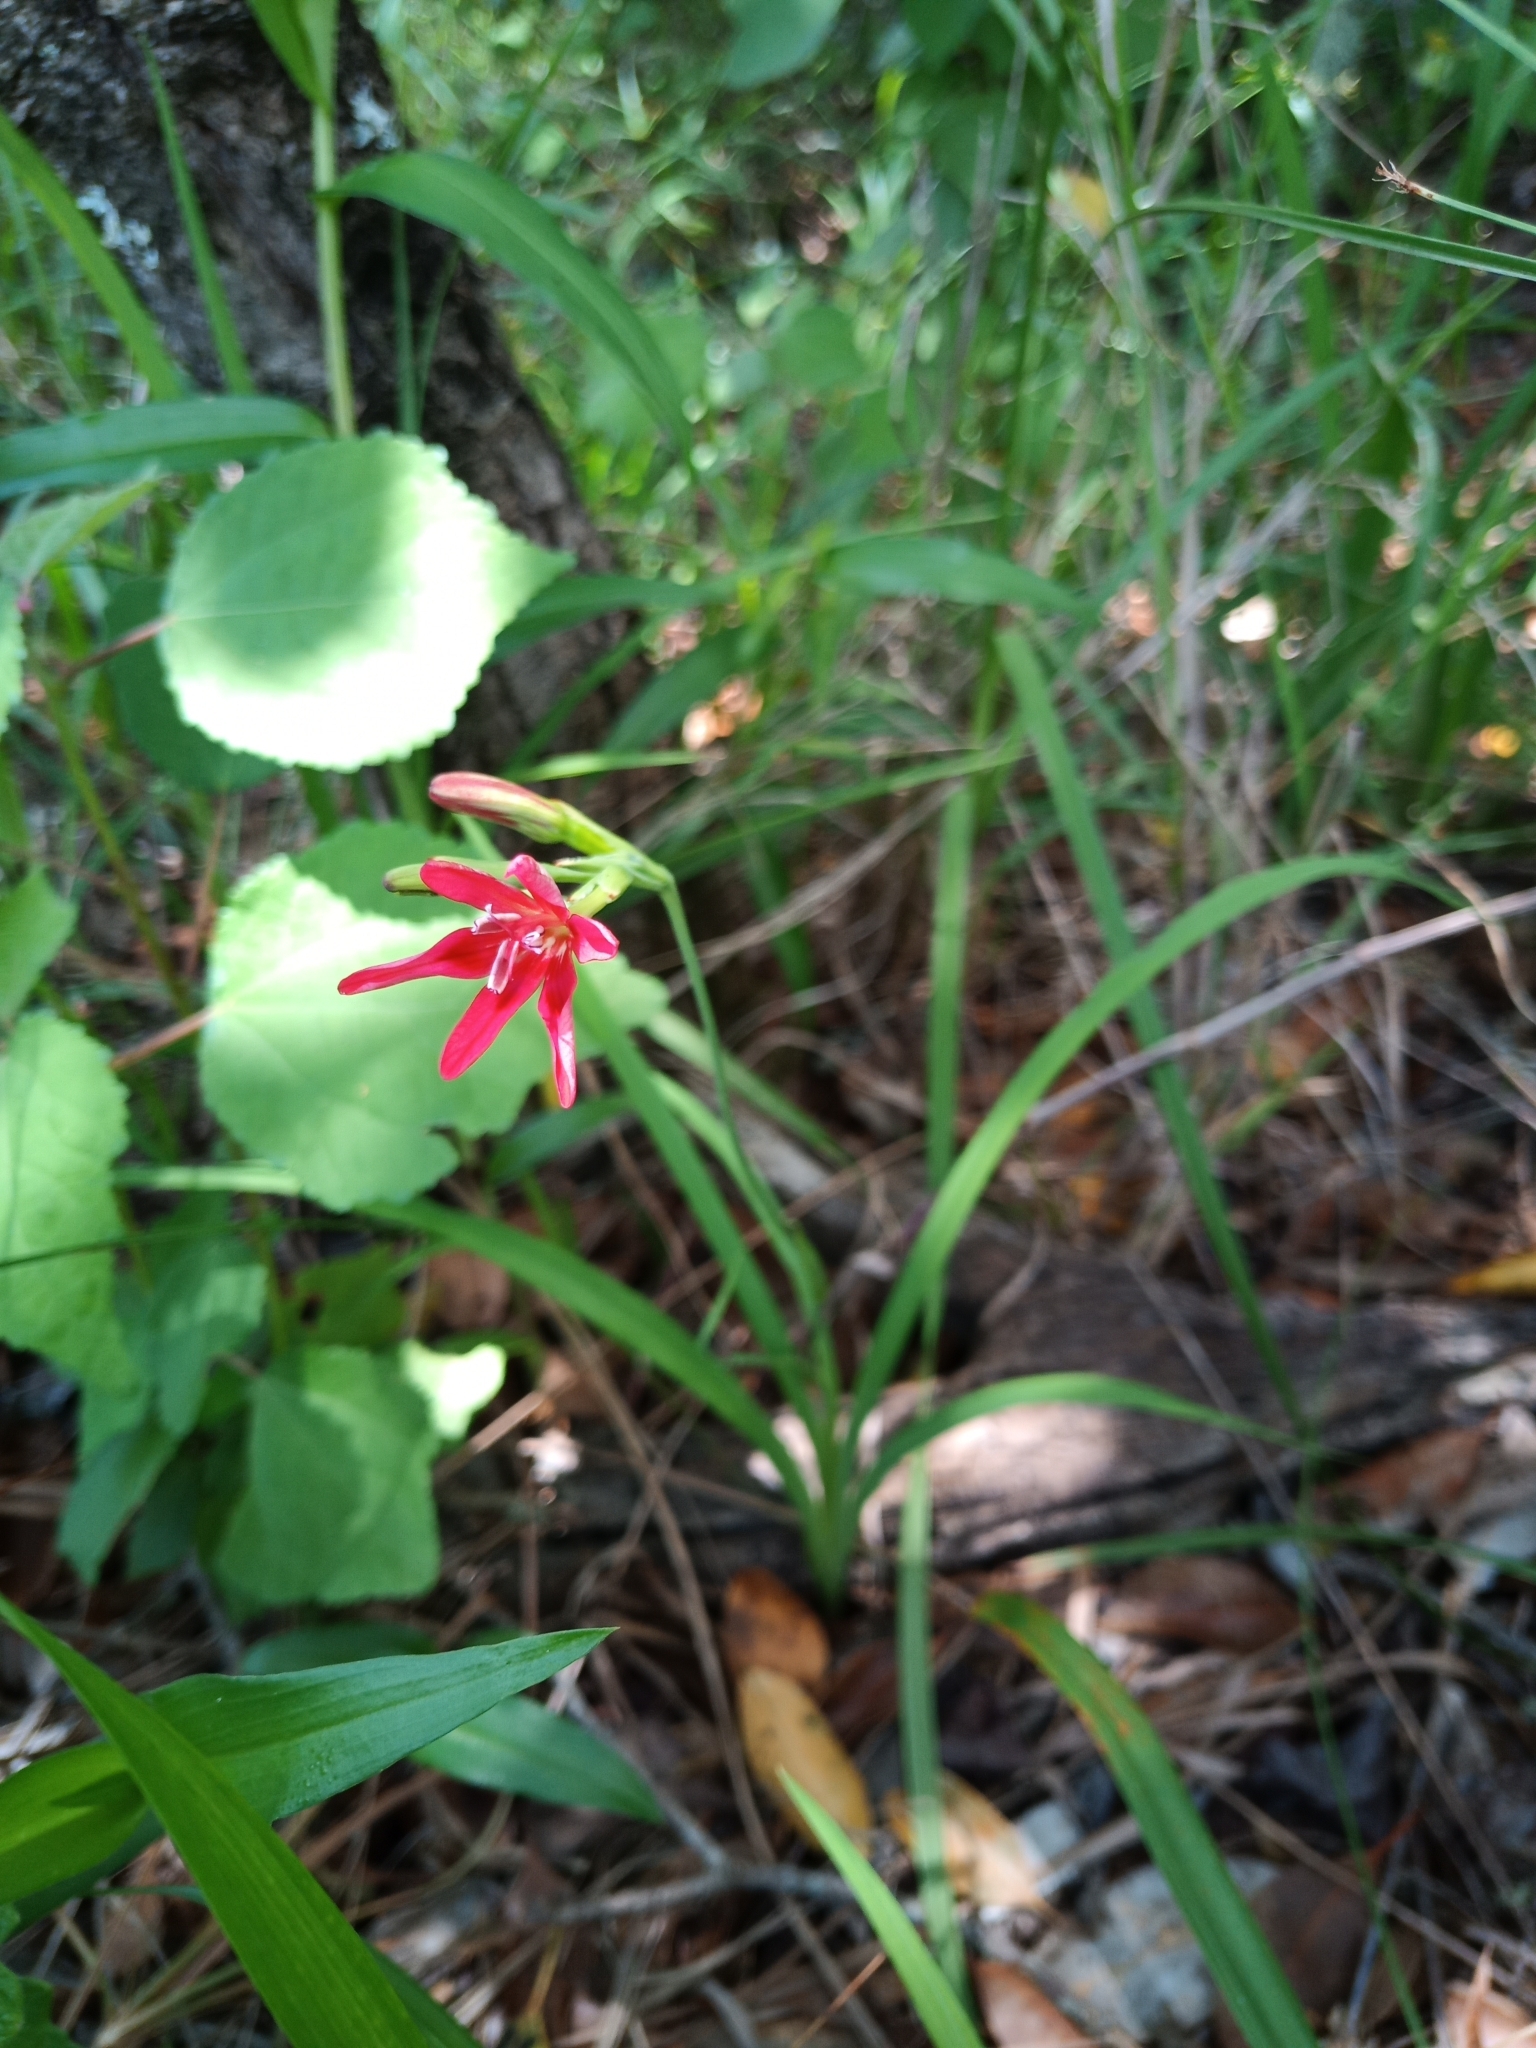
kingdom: Plantae
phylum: Tracheophyta
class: Liliopsida
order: Asparagales
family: Iridaceae
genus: Freesia
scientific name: Freesia grandiflora
